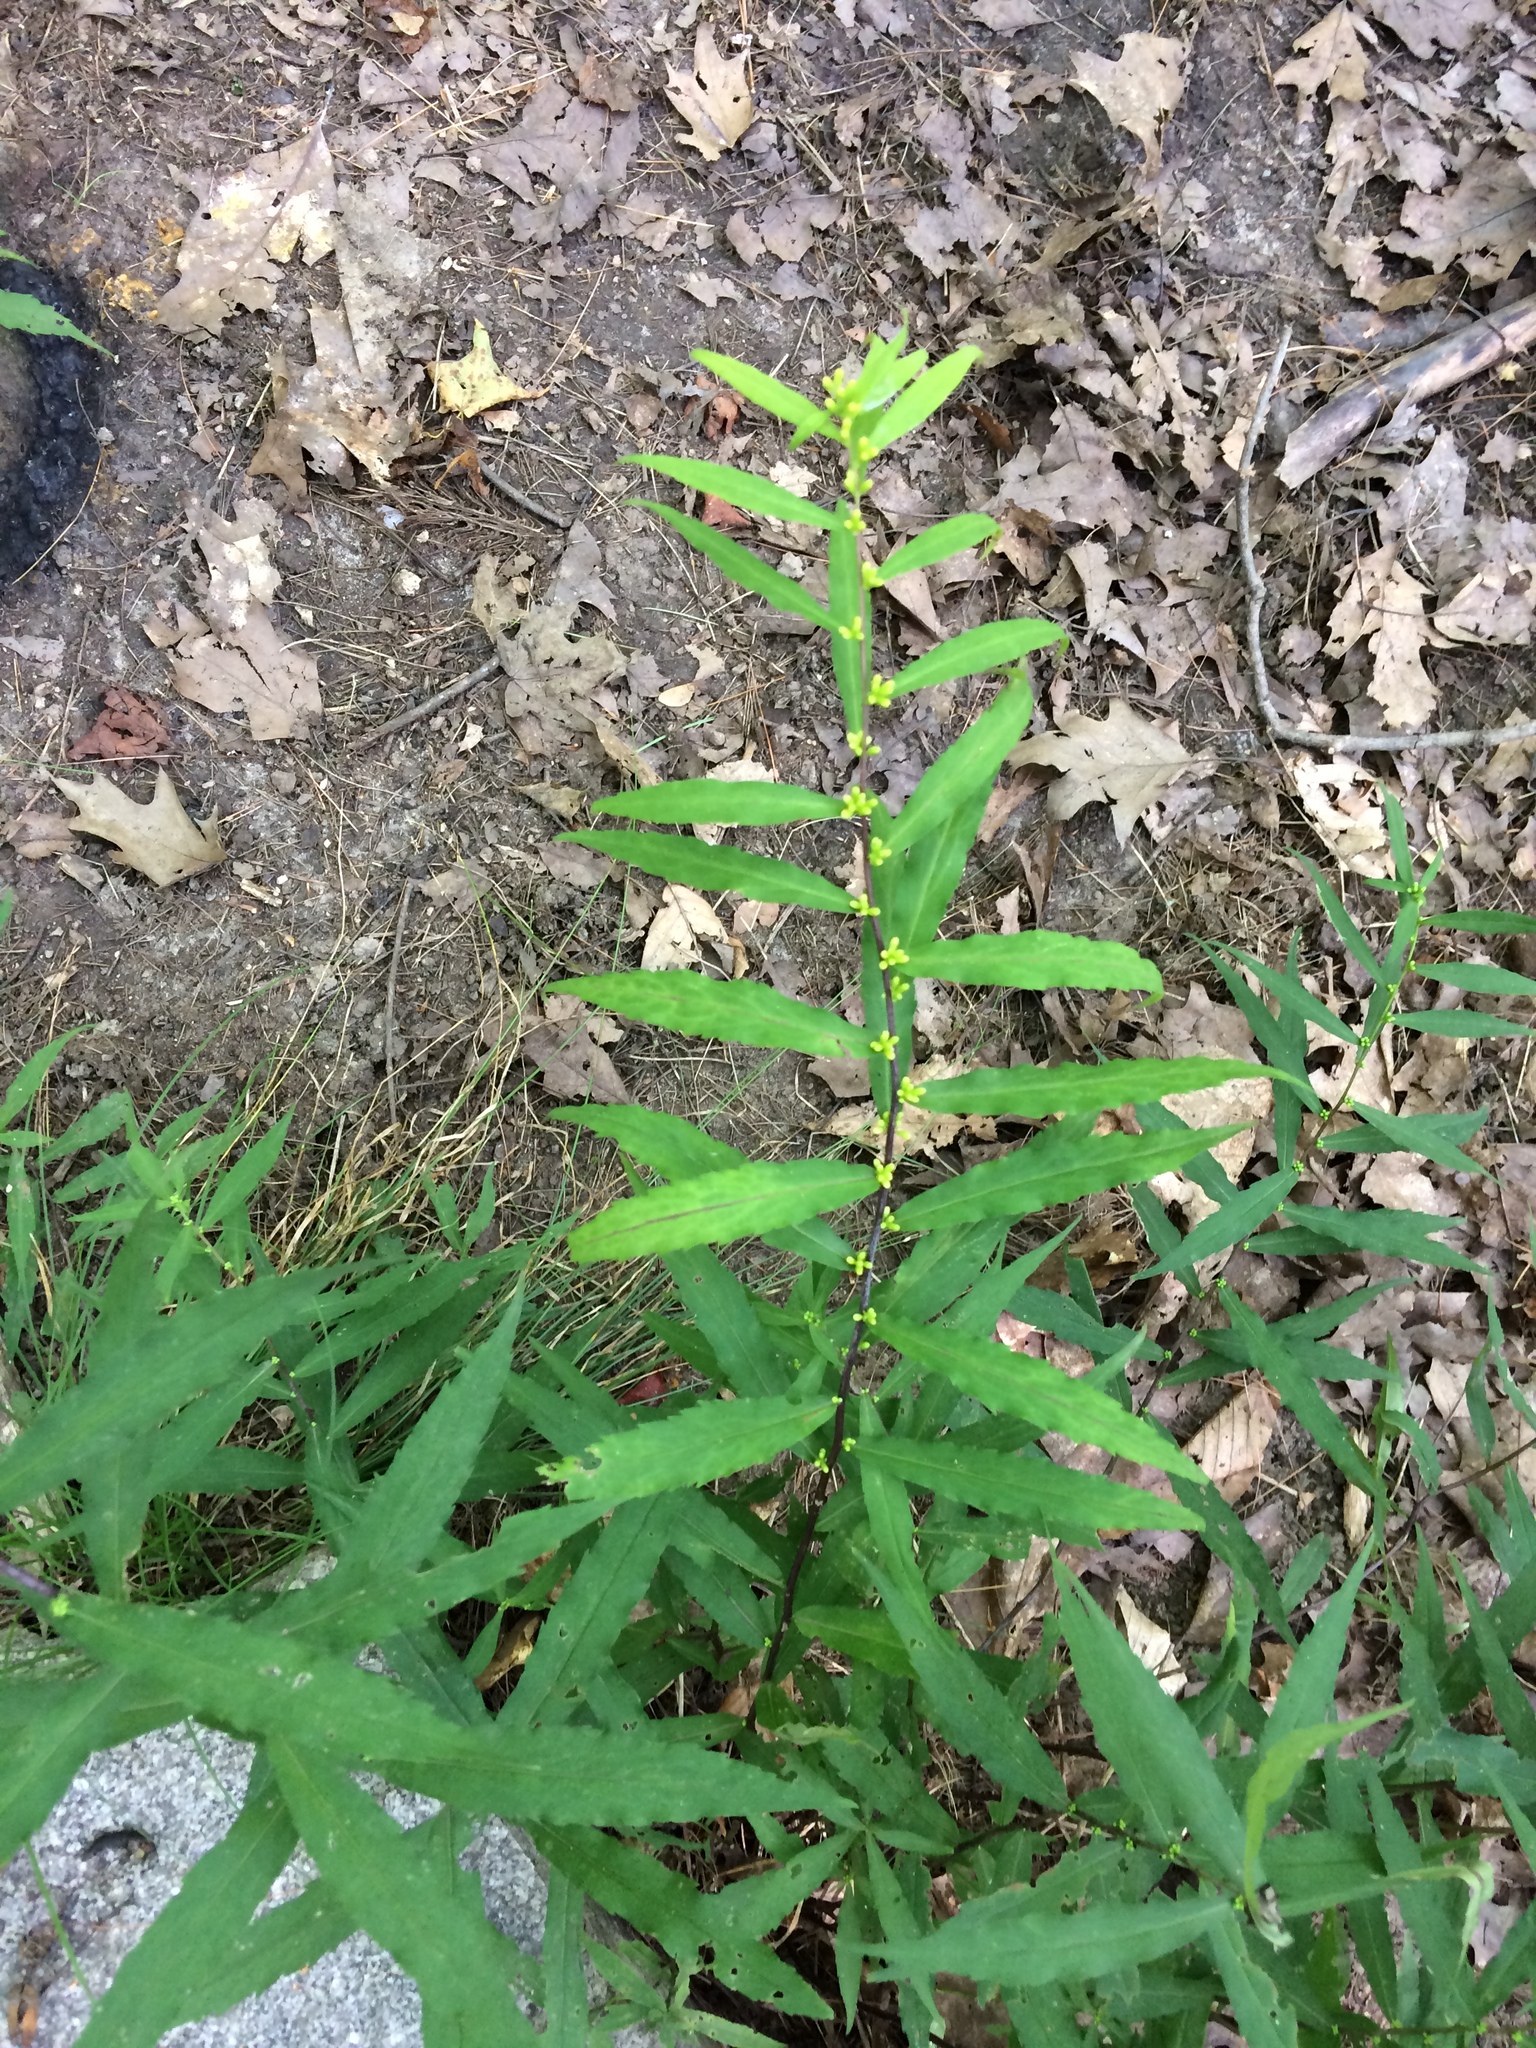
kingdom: Plantae
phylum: Tracheophyta
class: Magnoliopsida
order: Asterales
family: Asteraceae
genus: Solidago
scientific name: Solidago caesia
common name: Woodland goldenrod
